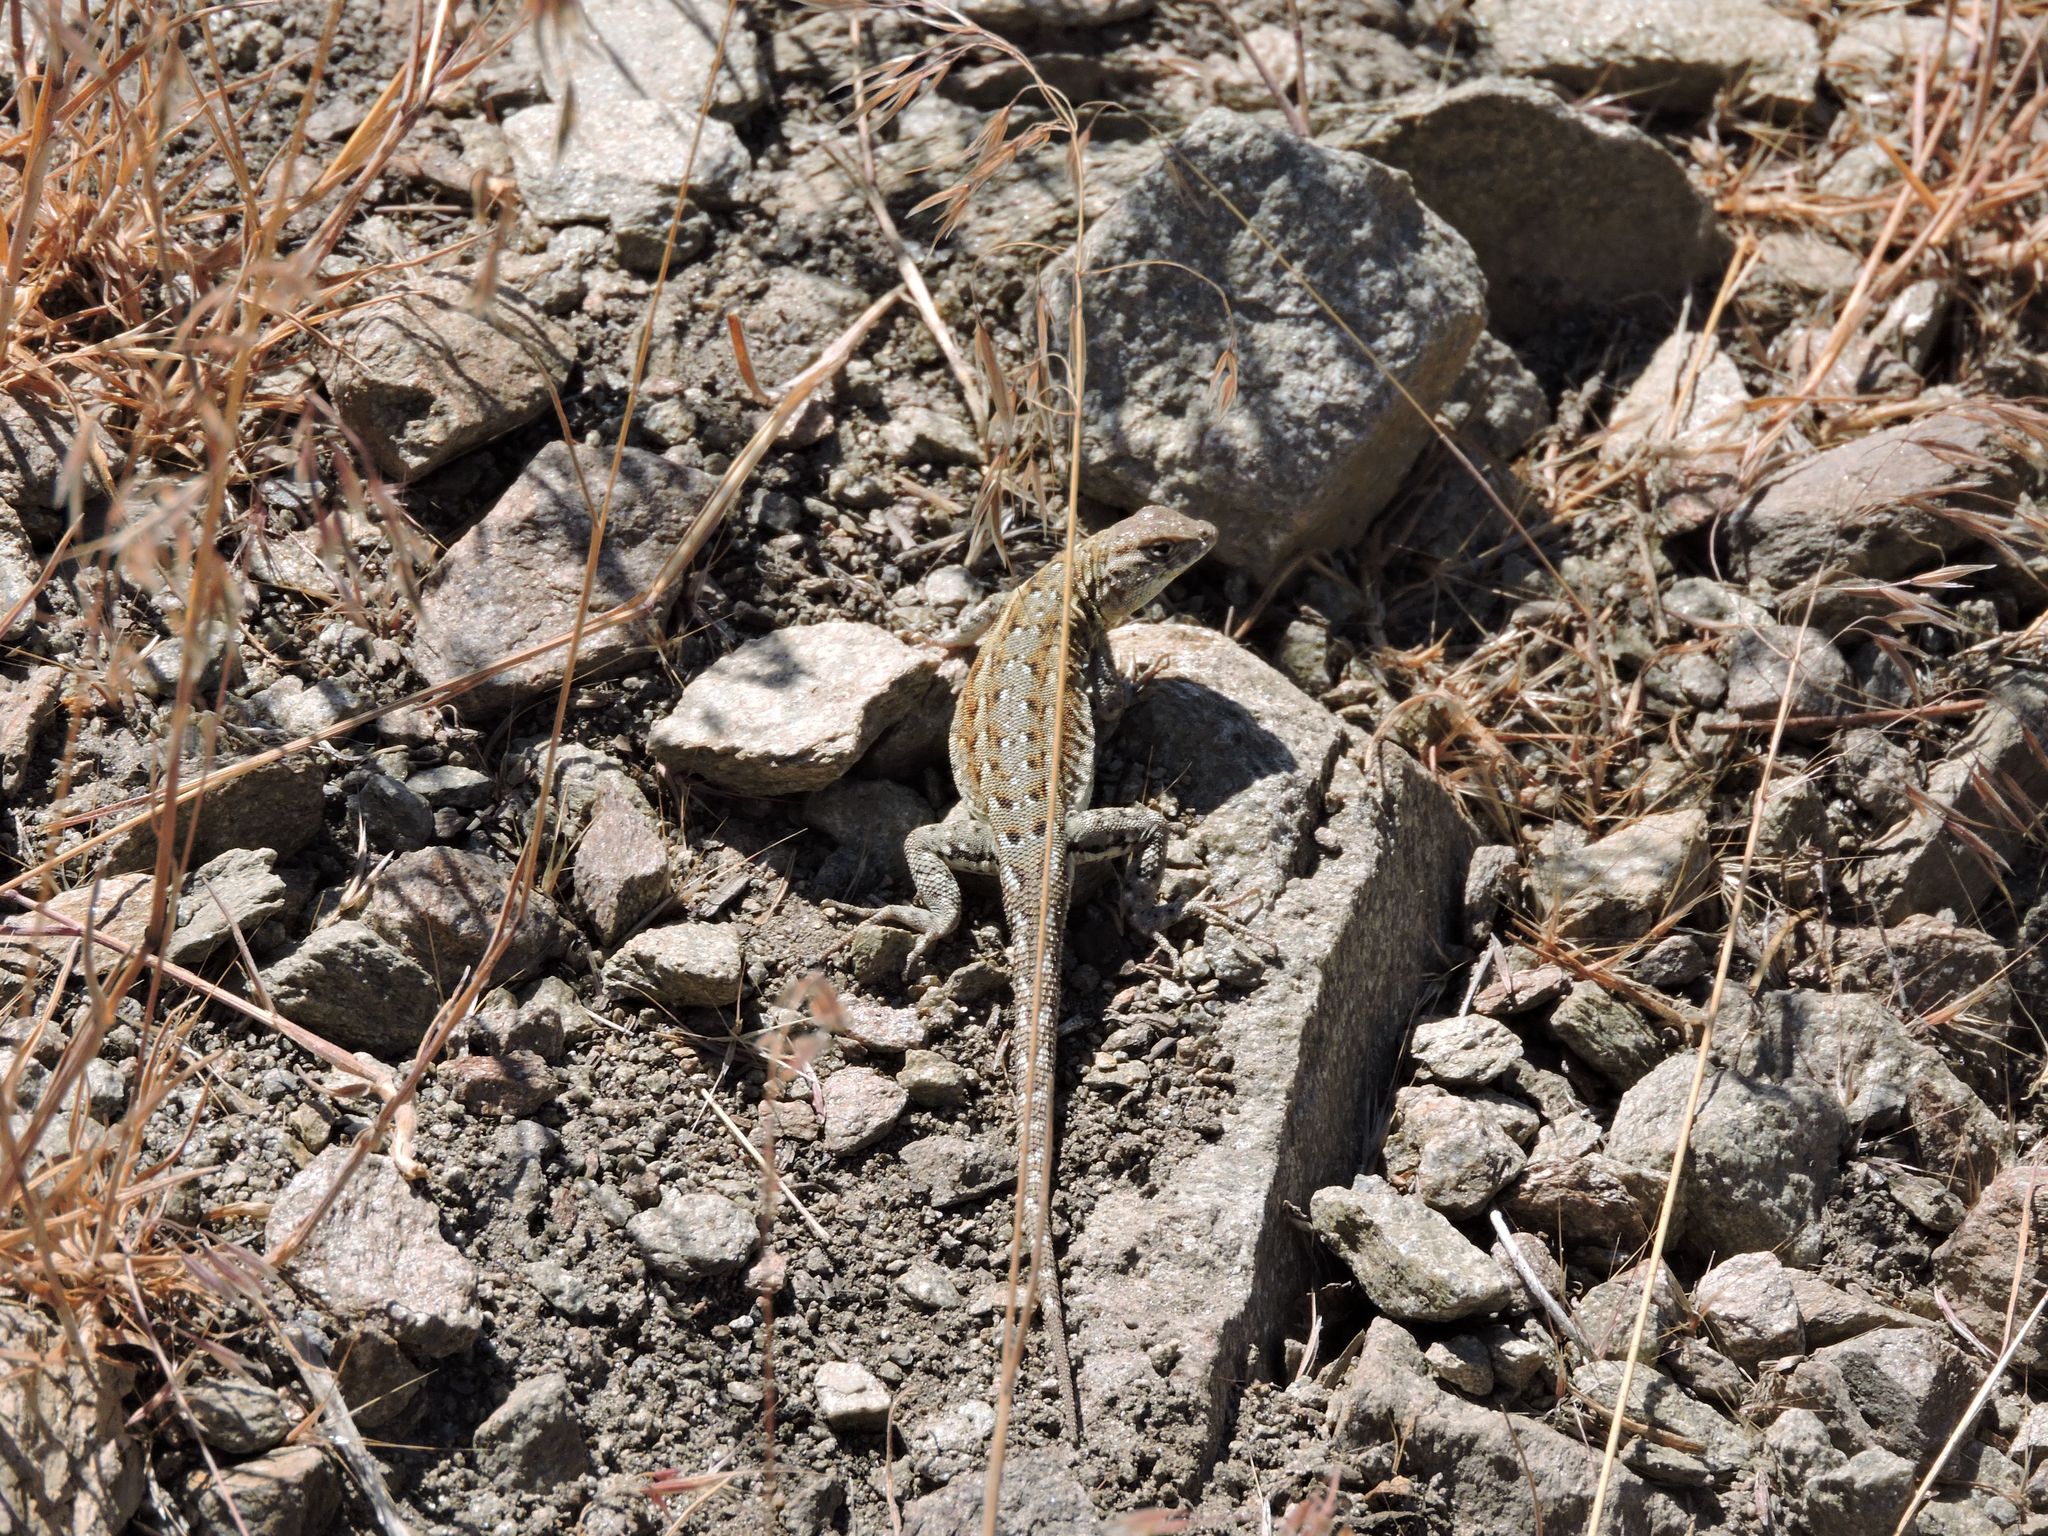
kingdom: Animalia
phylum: Chordata
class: Squamata
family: Phrynosomatidae
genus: Uta
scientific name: Uta stansburiana
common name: Side-blotched lizard
